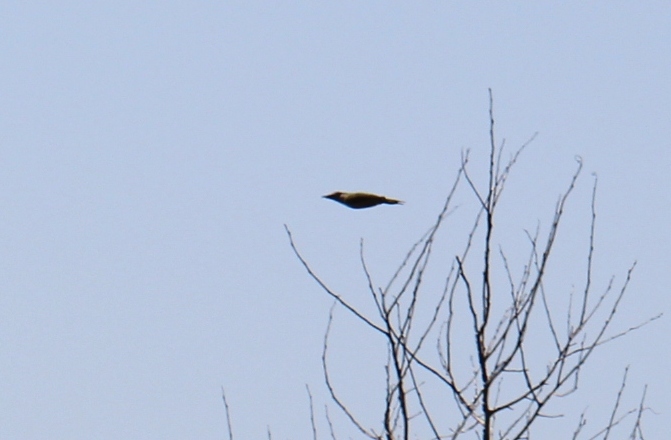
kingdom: Animalia
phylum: Chordata
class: Aves
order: Piciformes
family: Picidae
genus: Picus
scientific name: Picus viridis
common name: European green woodpecker
